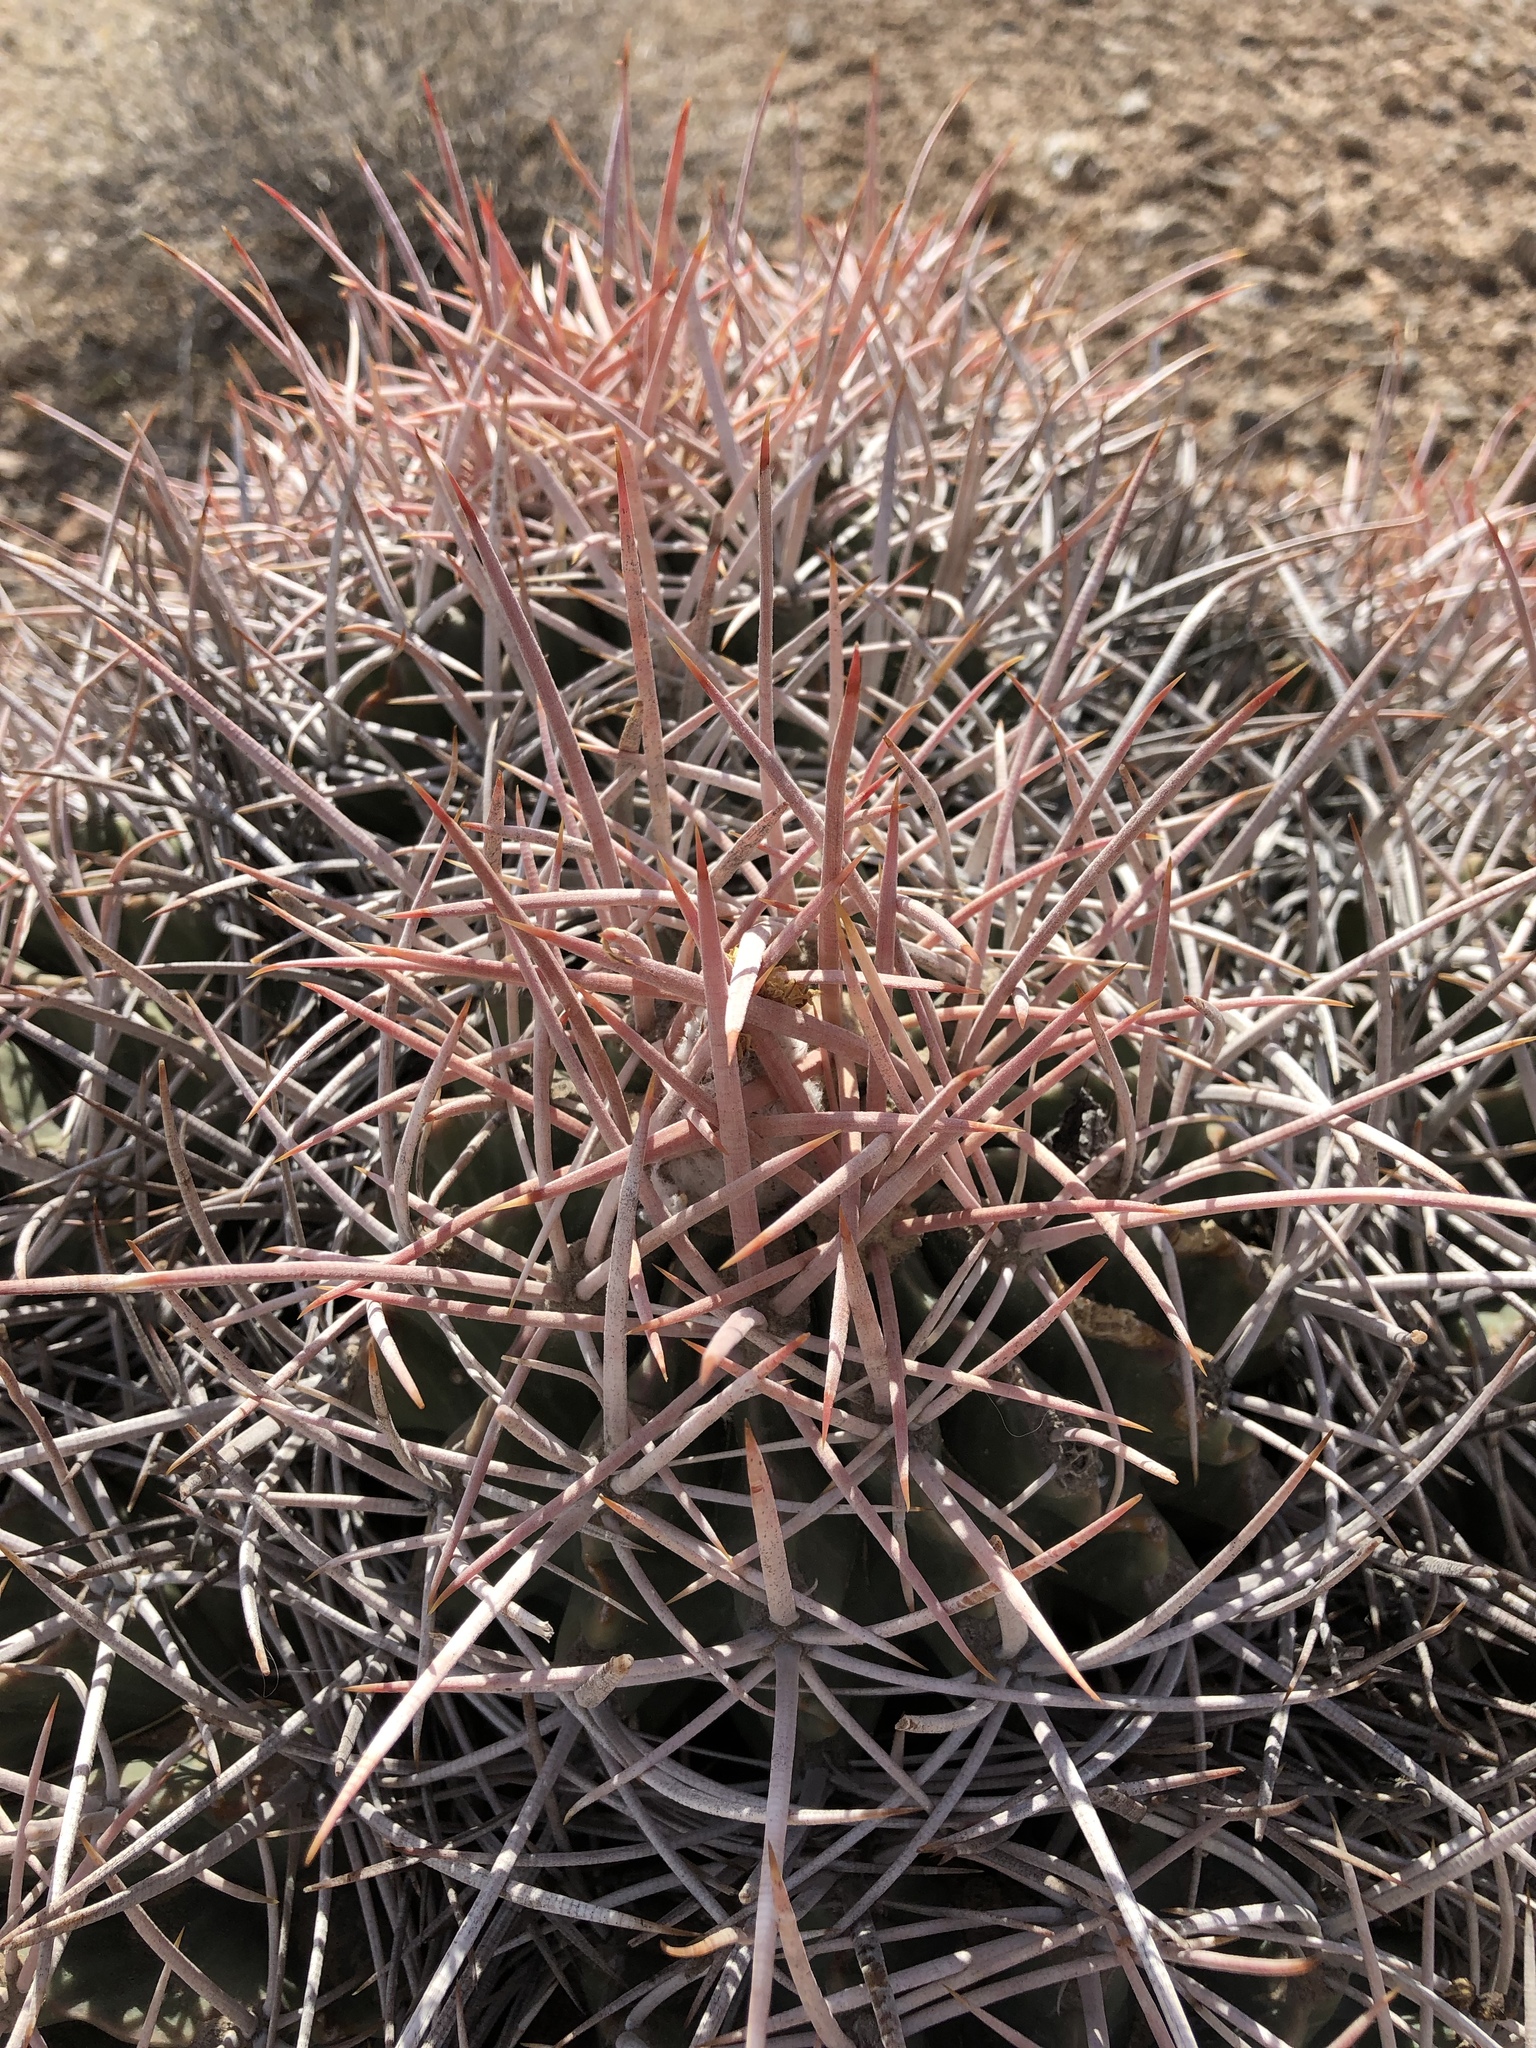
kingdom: Plantae
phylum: Tracheophyta
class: Magnoliopsida
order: Caryophyllales
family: Cactaceae
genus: Echinocactus
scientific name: Echinocactus polycephalus
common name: Cottontop cactus
